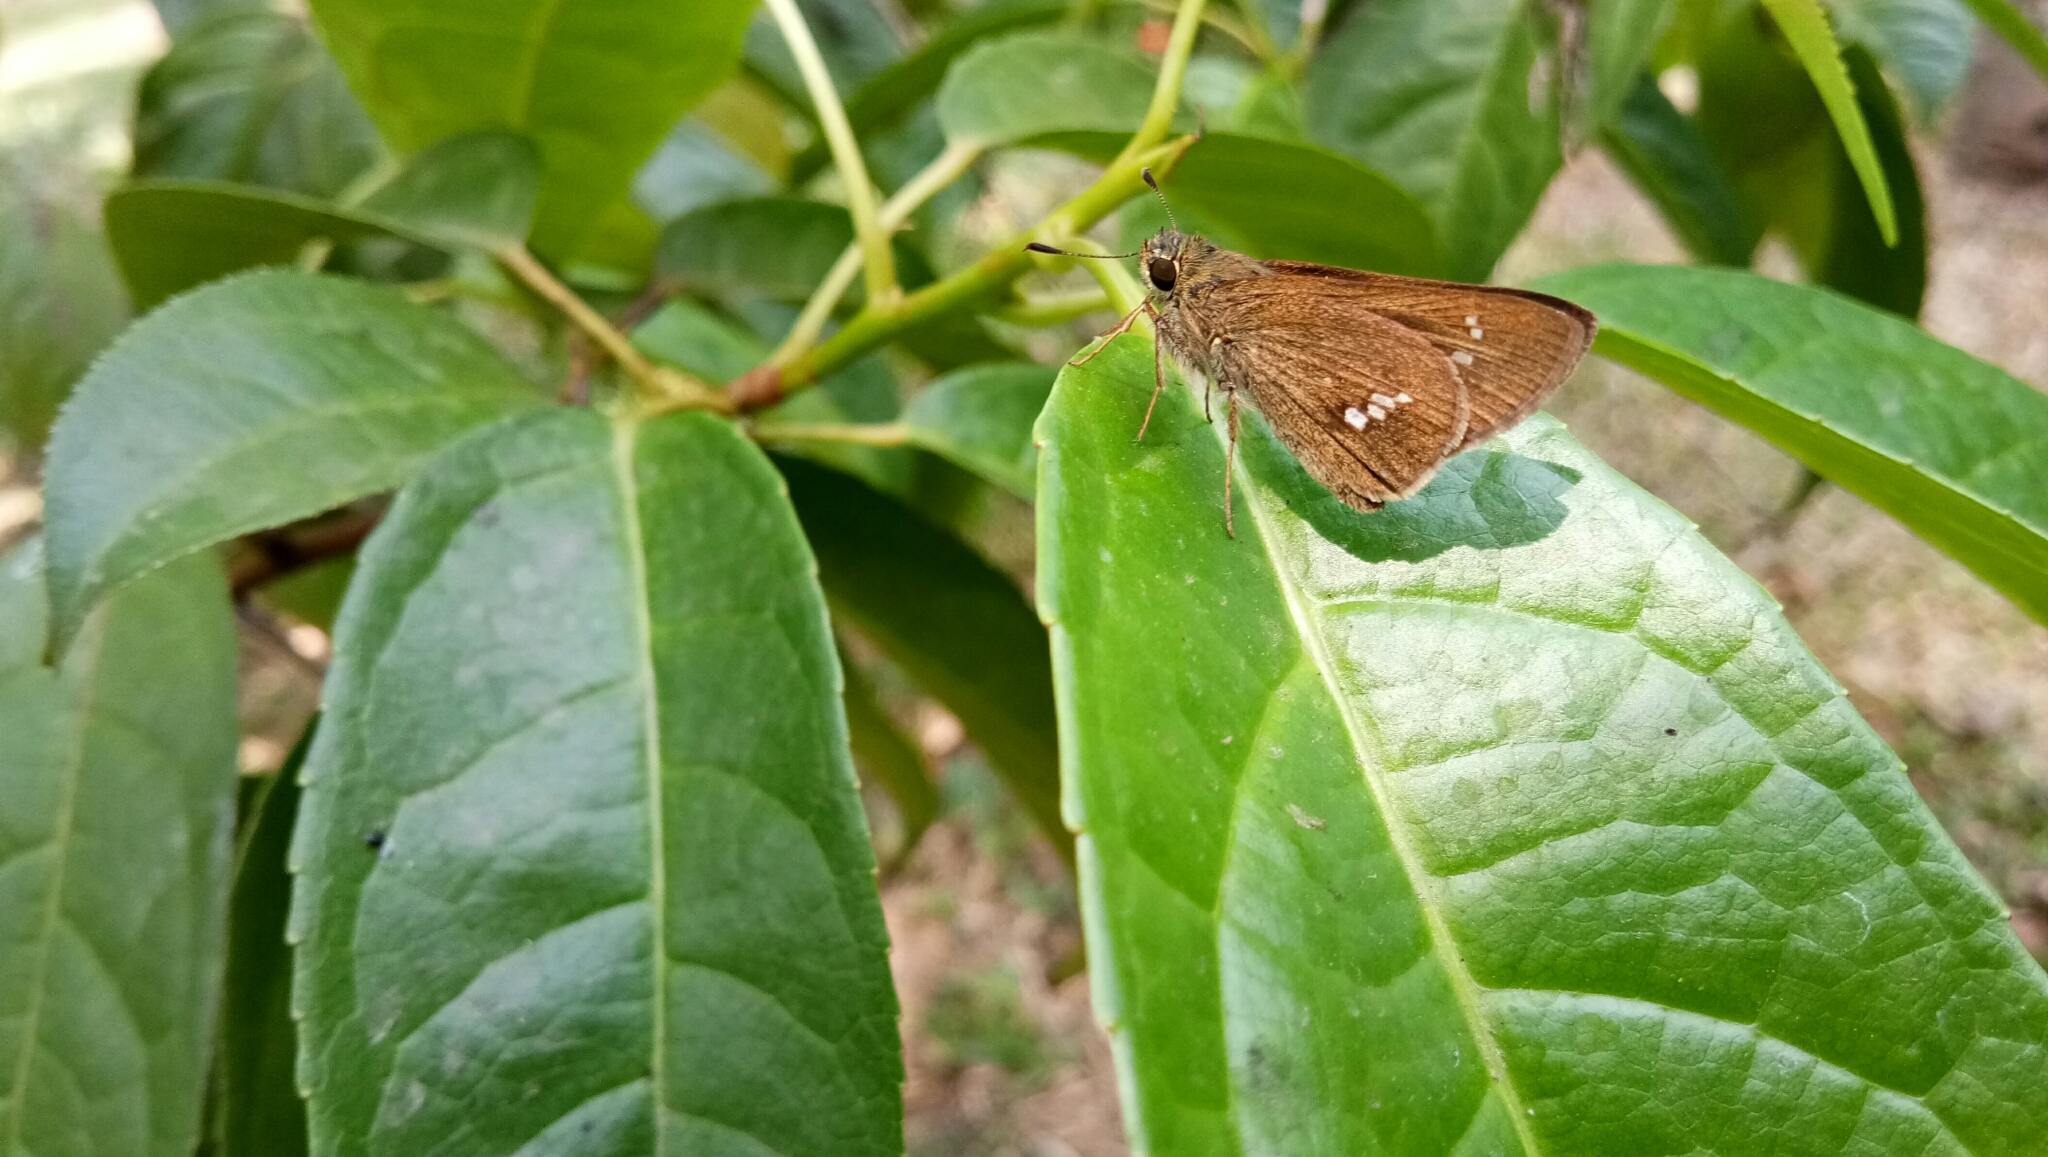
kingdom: Animalia
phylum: Arthropoda
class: Insecta
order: Lepidoptera
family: Hesperiidae
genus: Parnara
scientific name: Parnara naso
